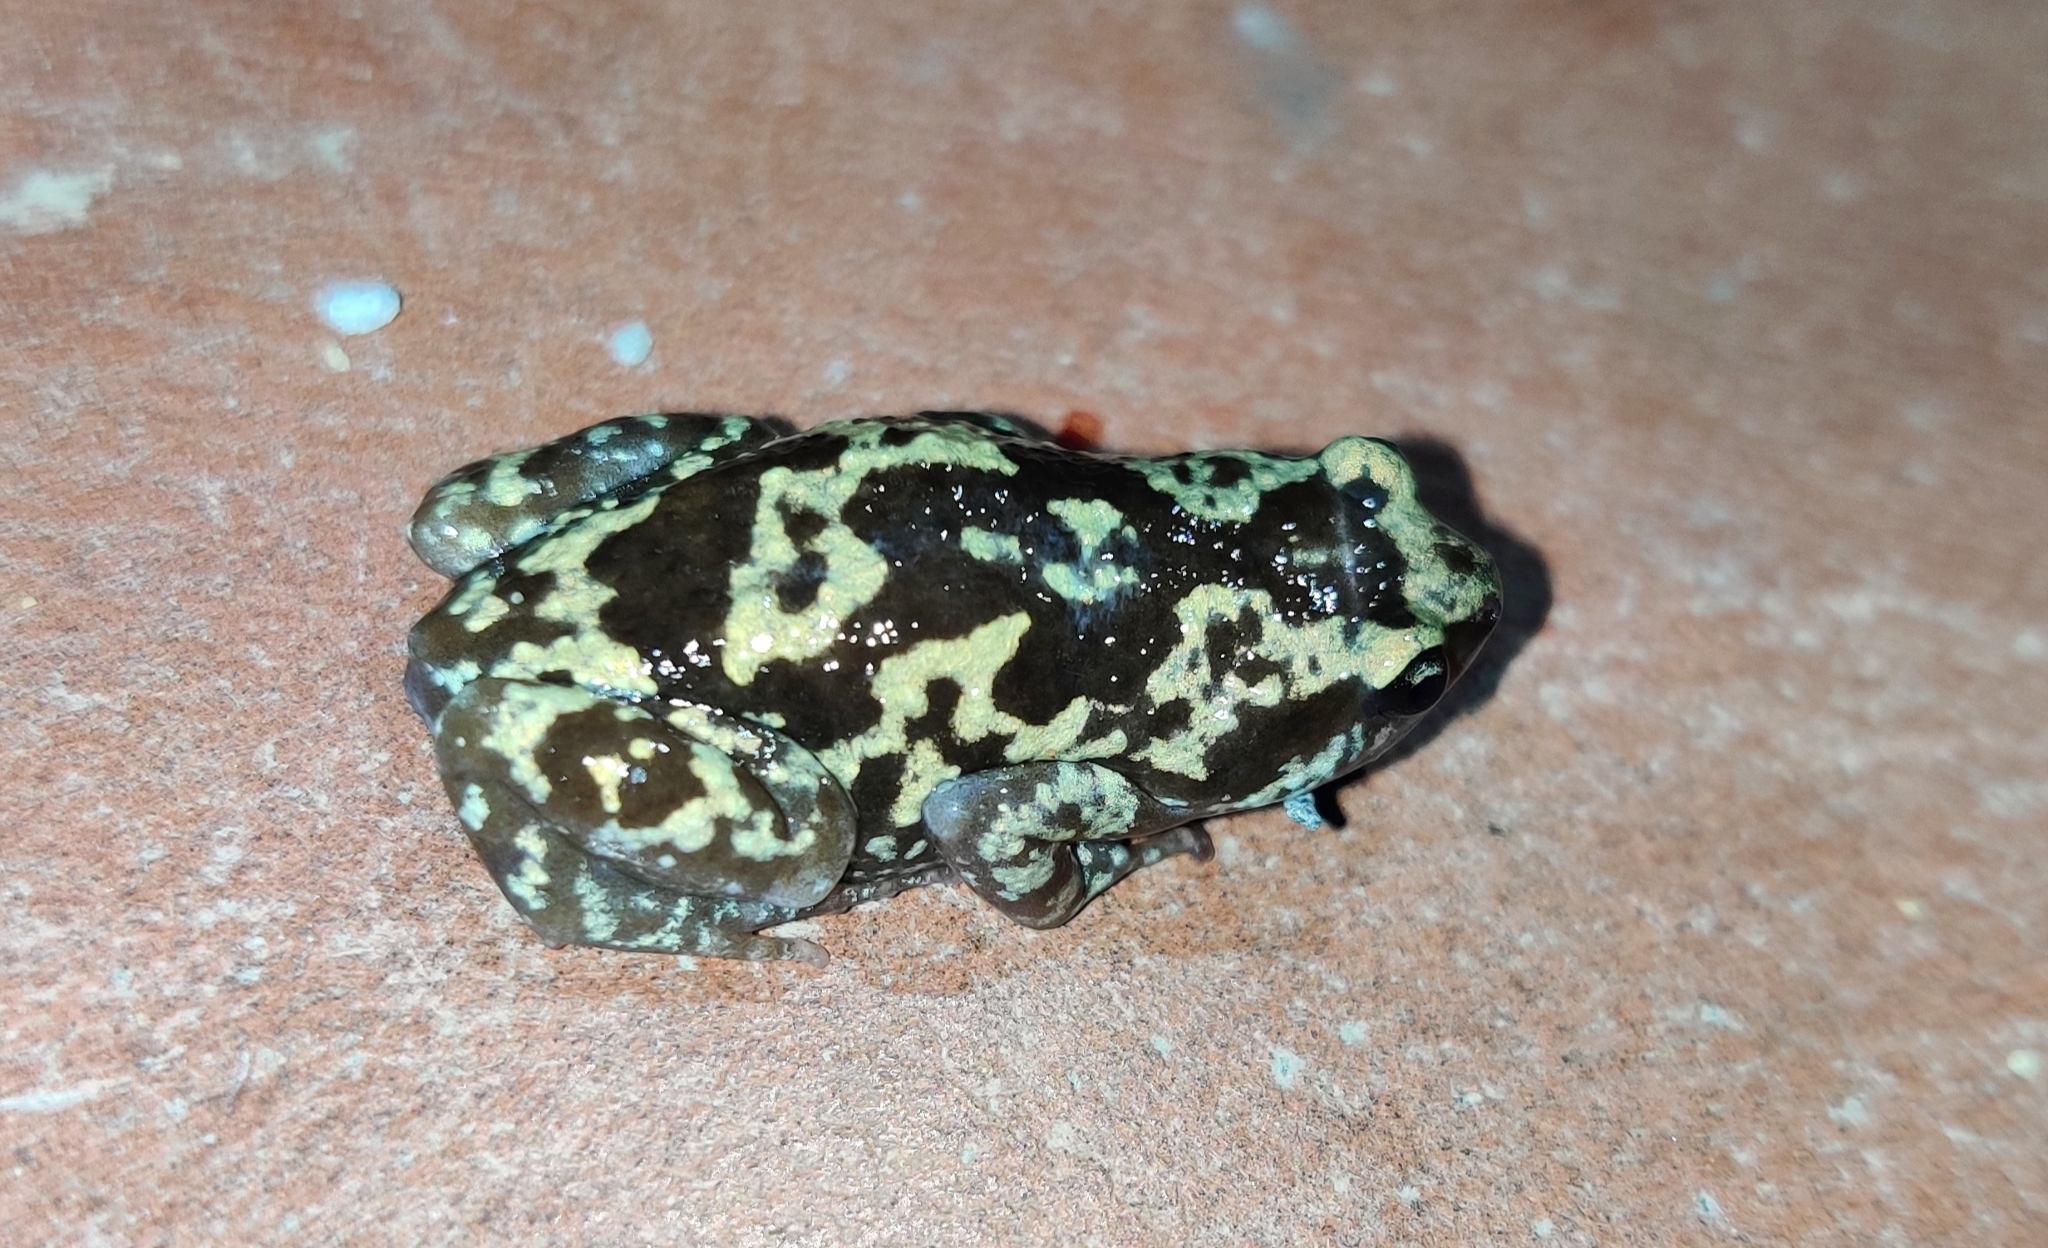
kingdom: Animalia
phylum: Chordata
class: Amphibia
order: Anura
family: Microhylidae
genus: Uperodon
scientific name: Uperodon variegatus
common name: Eluru dot frog
